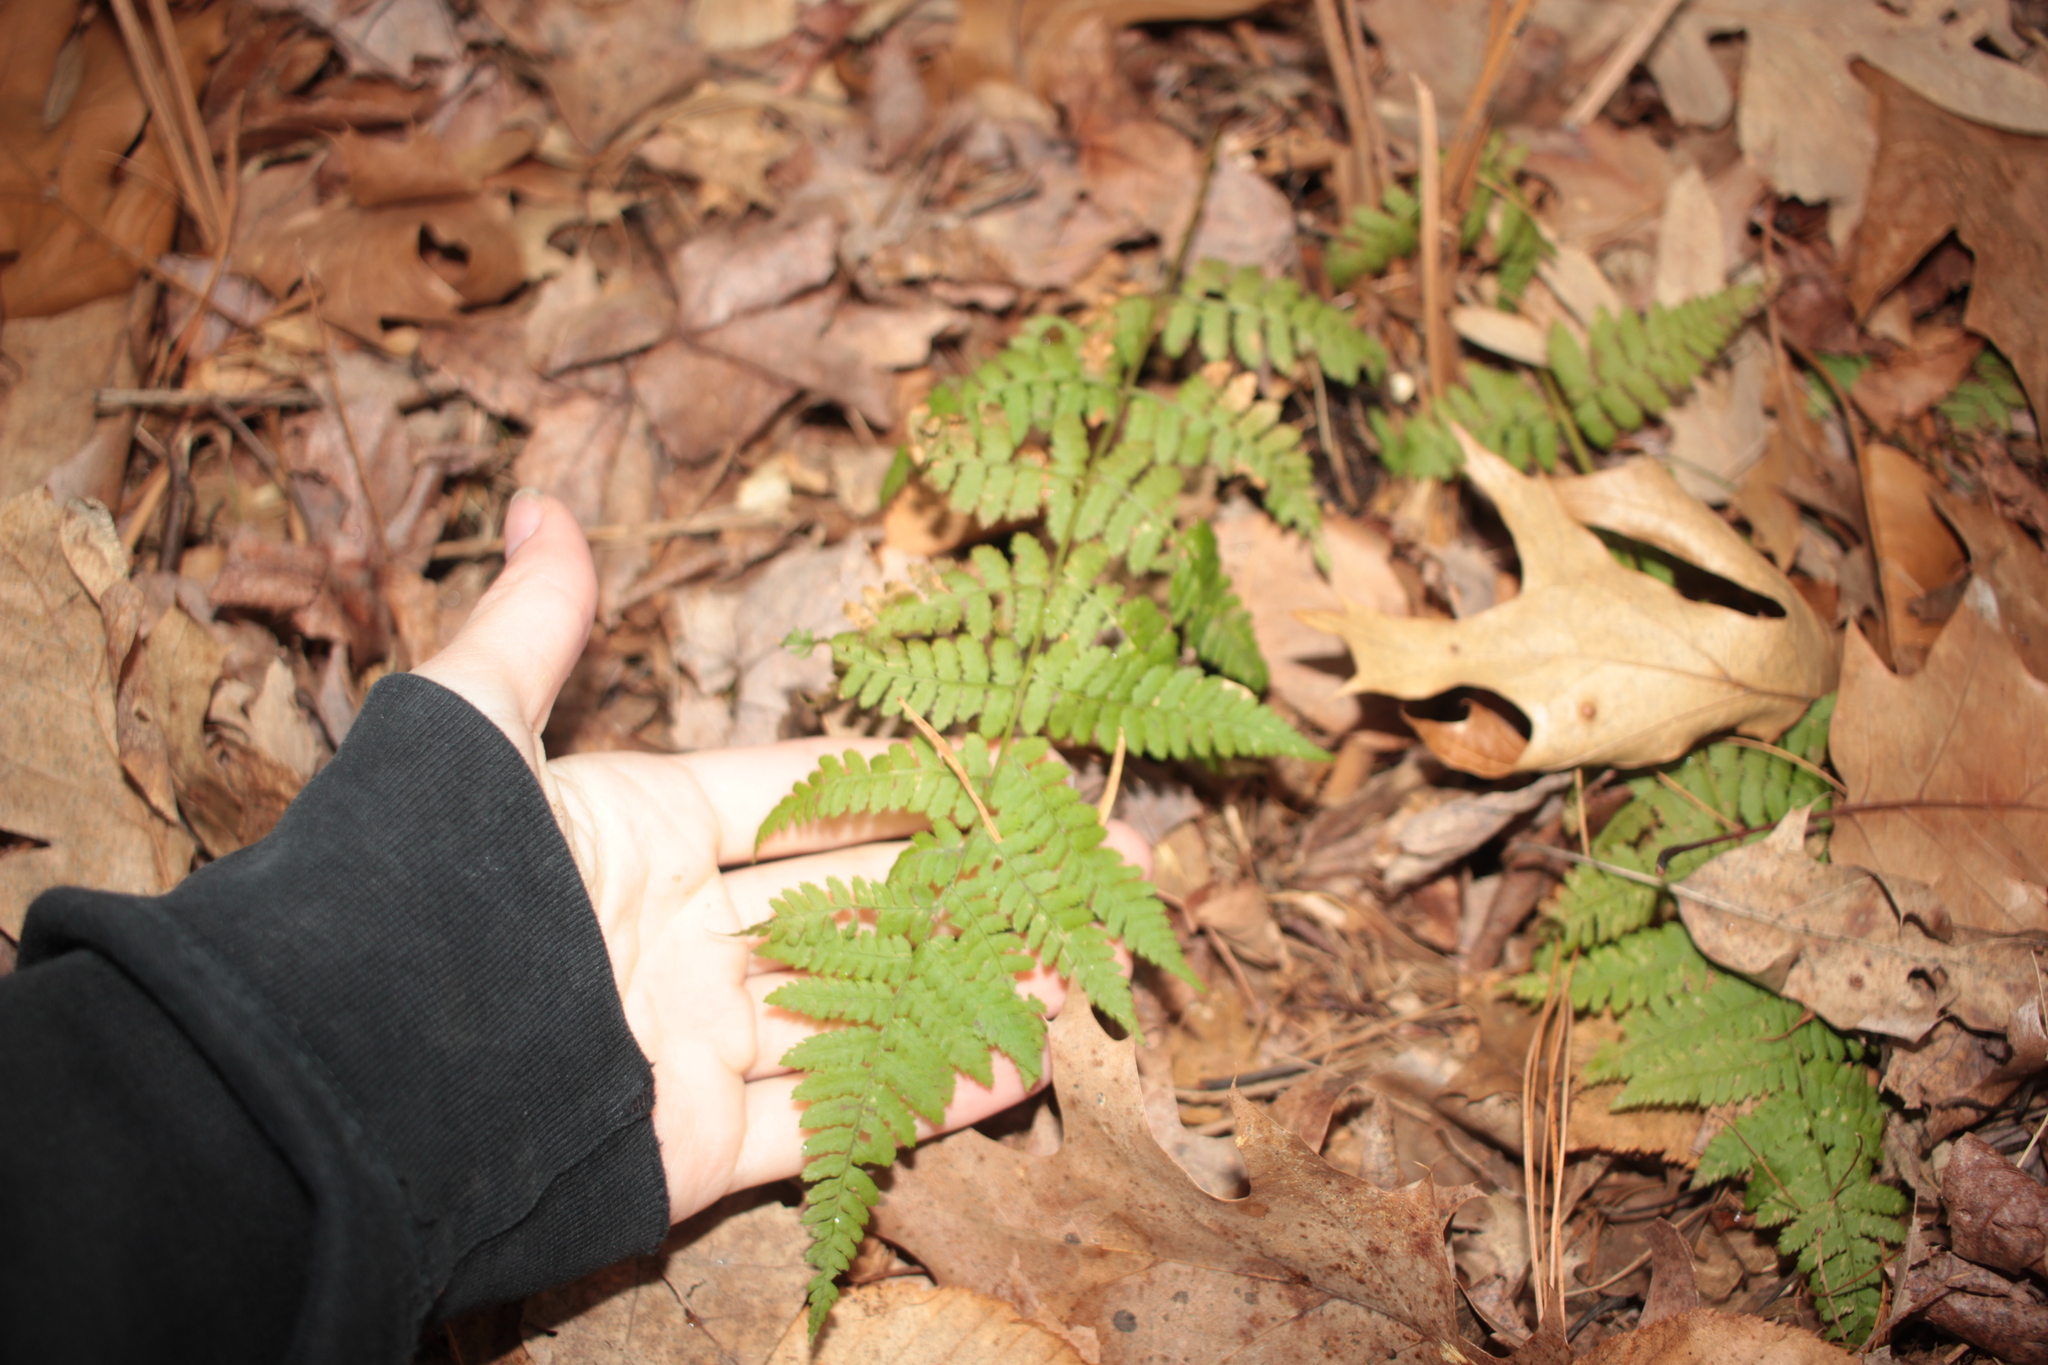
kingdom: Plantae
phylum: Tracheophyta
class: Polypodiopsida
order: Polypodiales
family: Dryopteridaceae
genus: Dryopteris
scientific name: Dryopteris intermedia
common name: Evergreen wood fern
